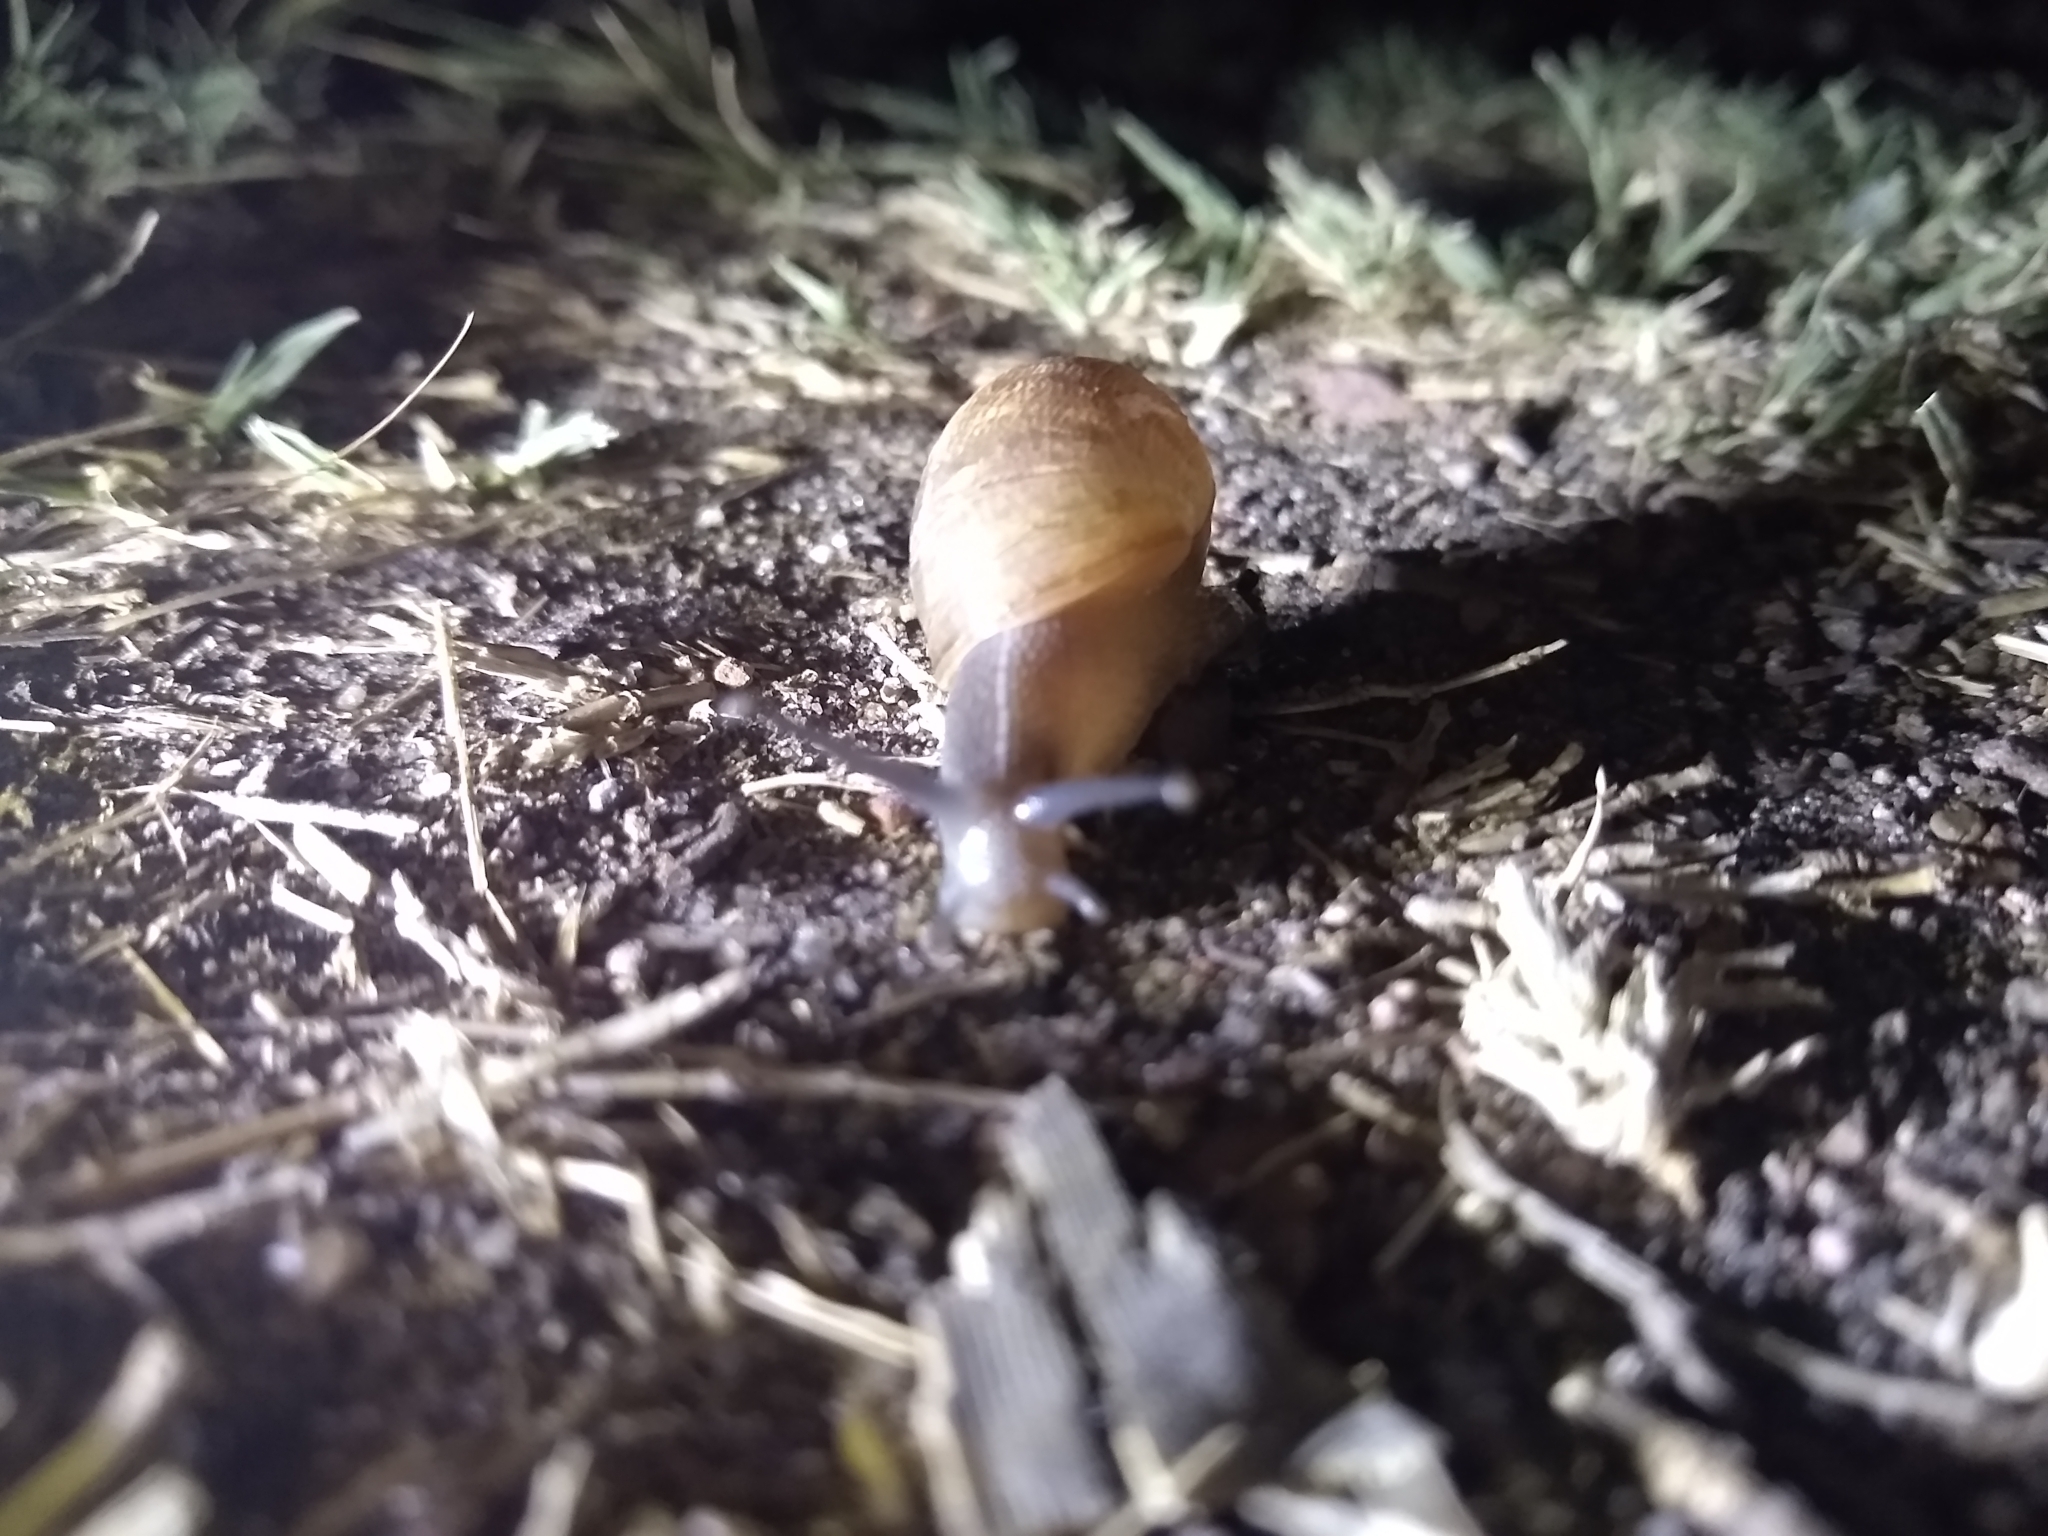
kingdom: Animalia
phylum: Mollusca
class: Gastropoda
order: Stylommatophora
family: Helicidae
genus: Cornu
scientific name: Cornu aspersum
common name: Brown garden snail
